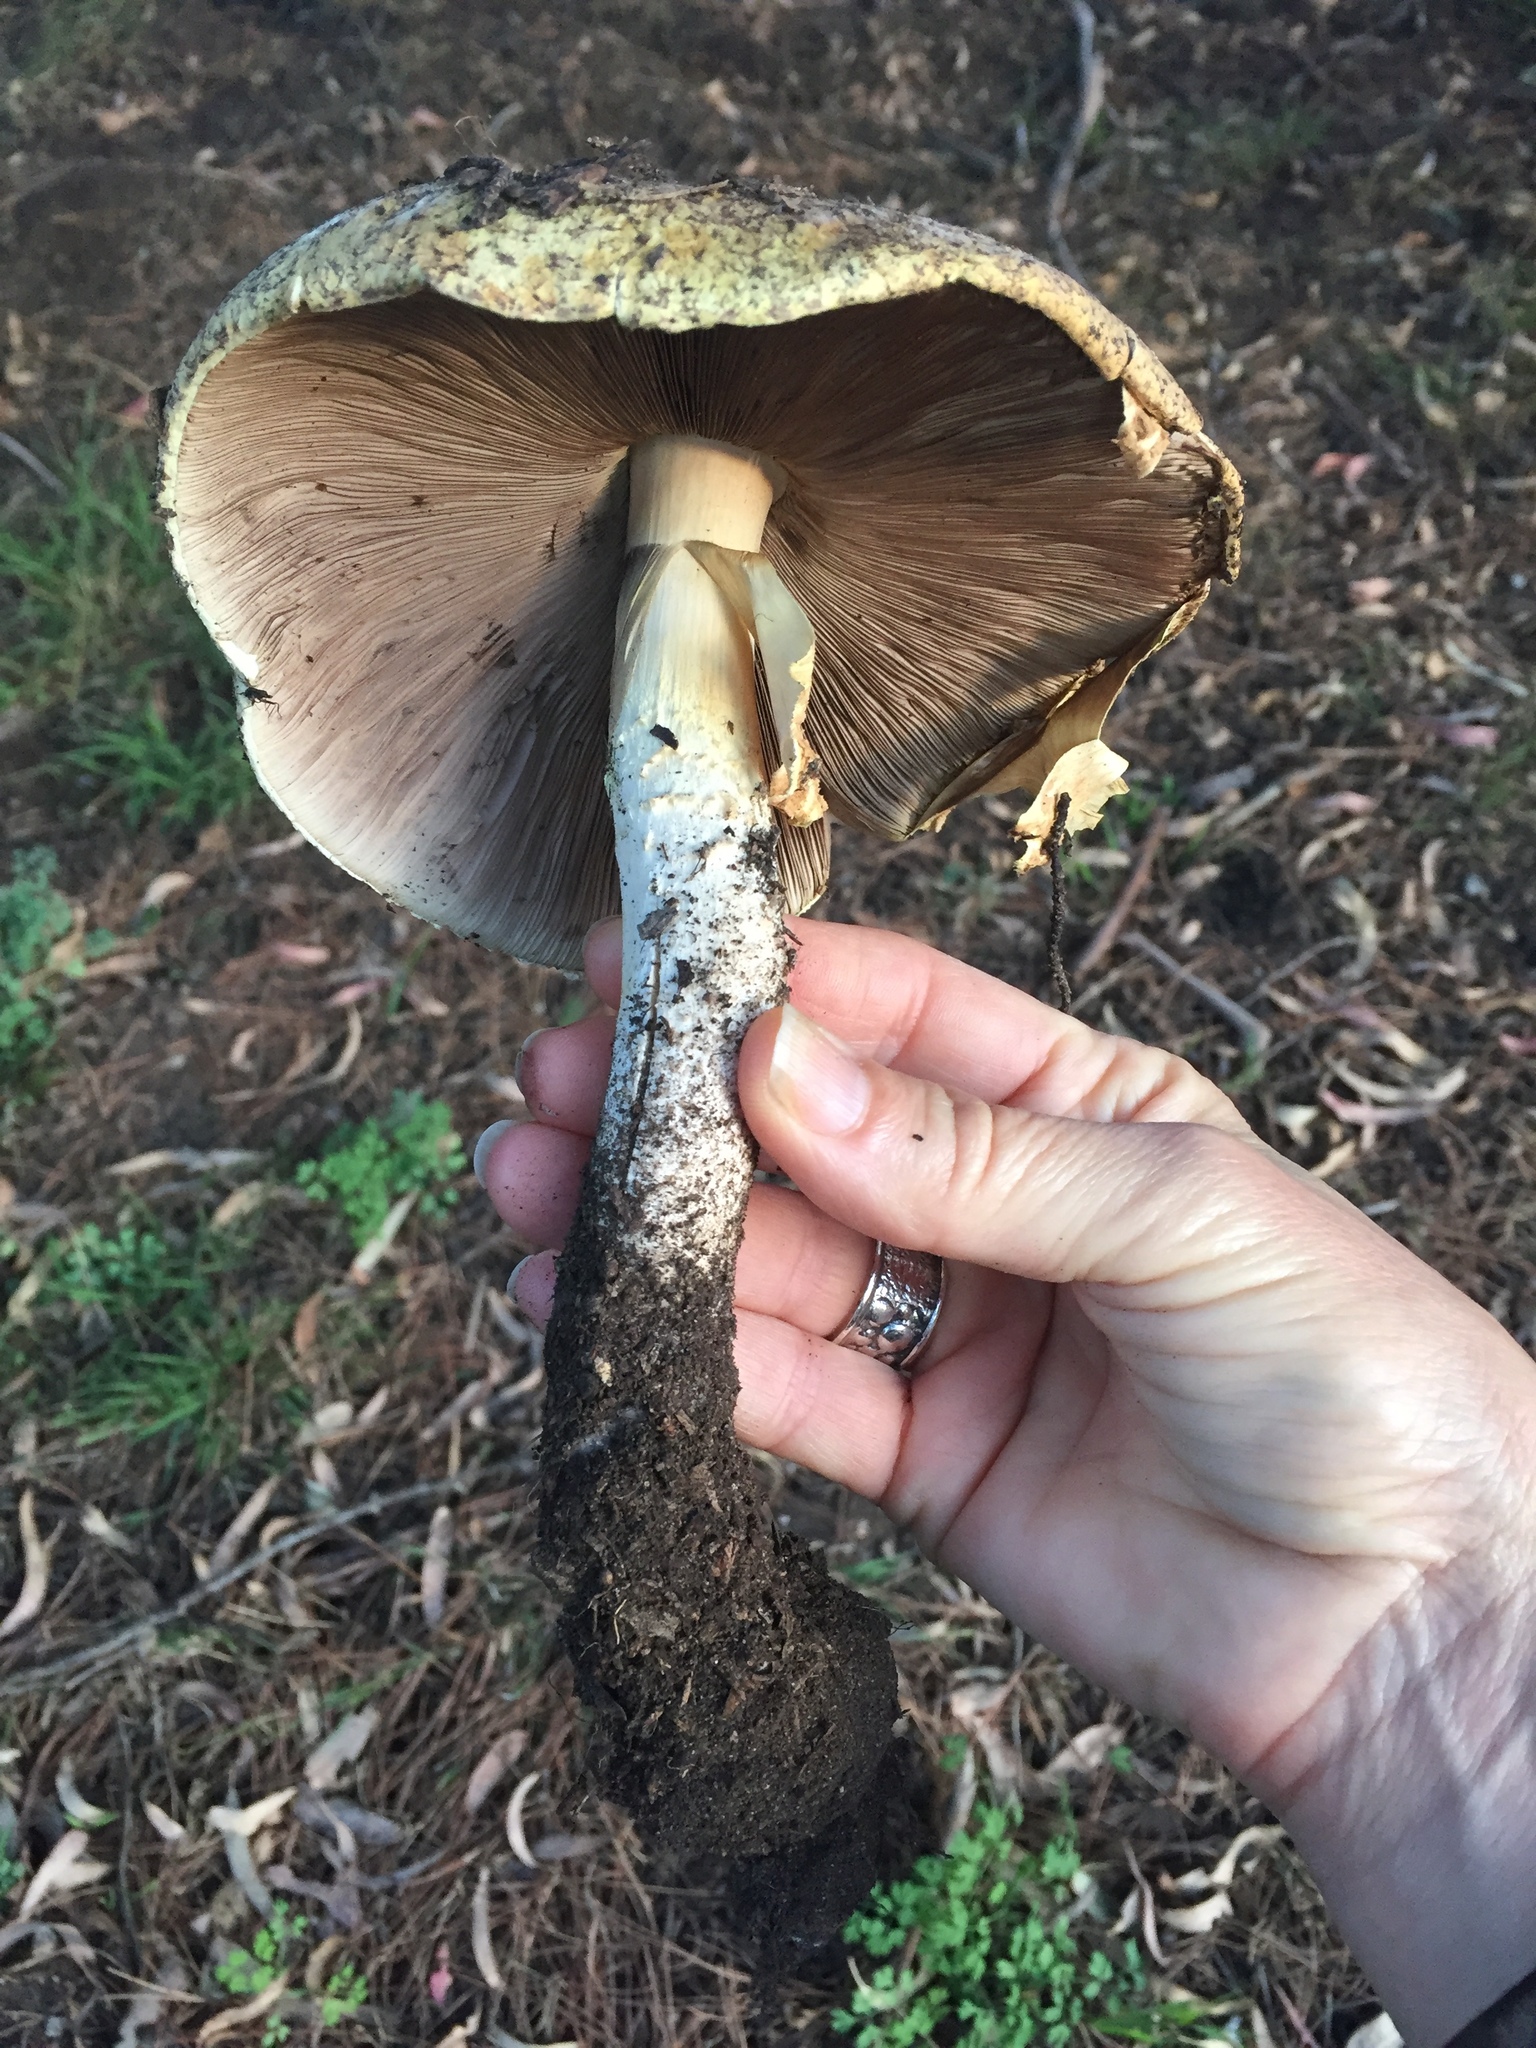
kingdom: Fungi
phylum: Basidiomycota
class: Agaricomycetes
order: Agaricales
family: Agaricaceae
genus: Agaricus
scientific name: Agaricus augustus
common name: Prince
